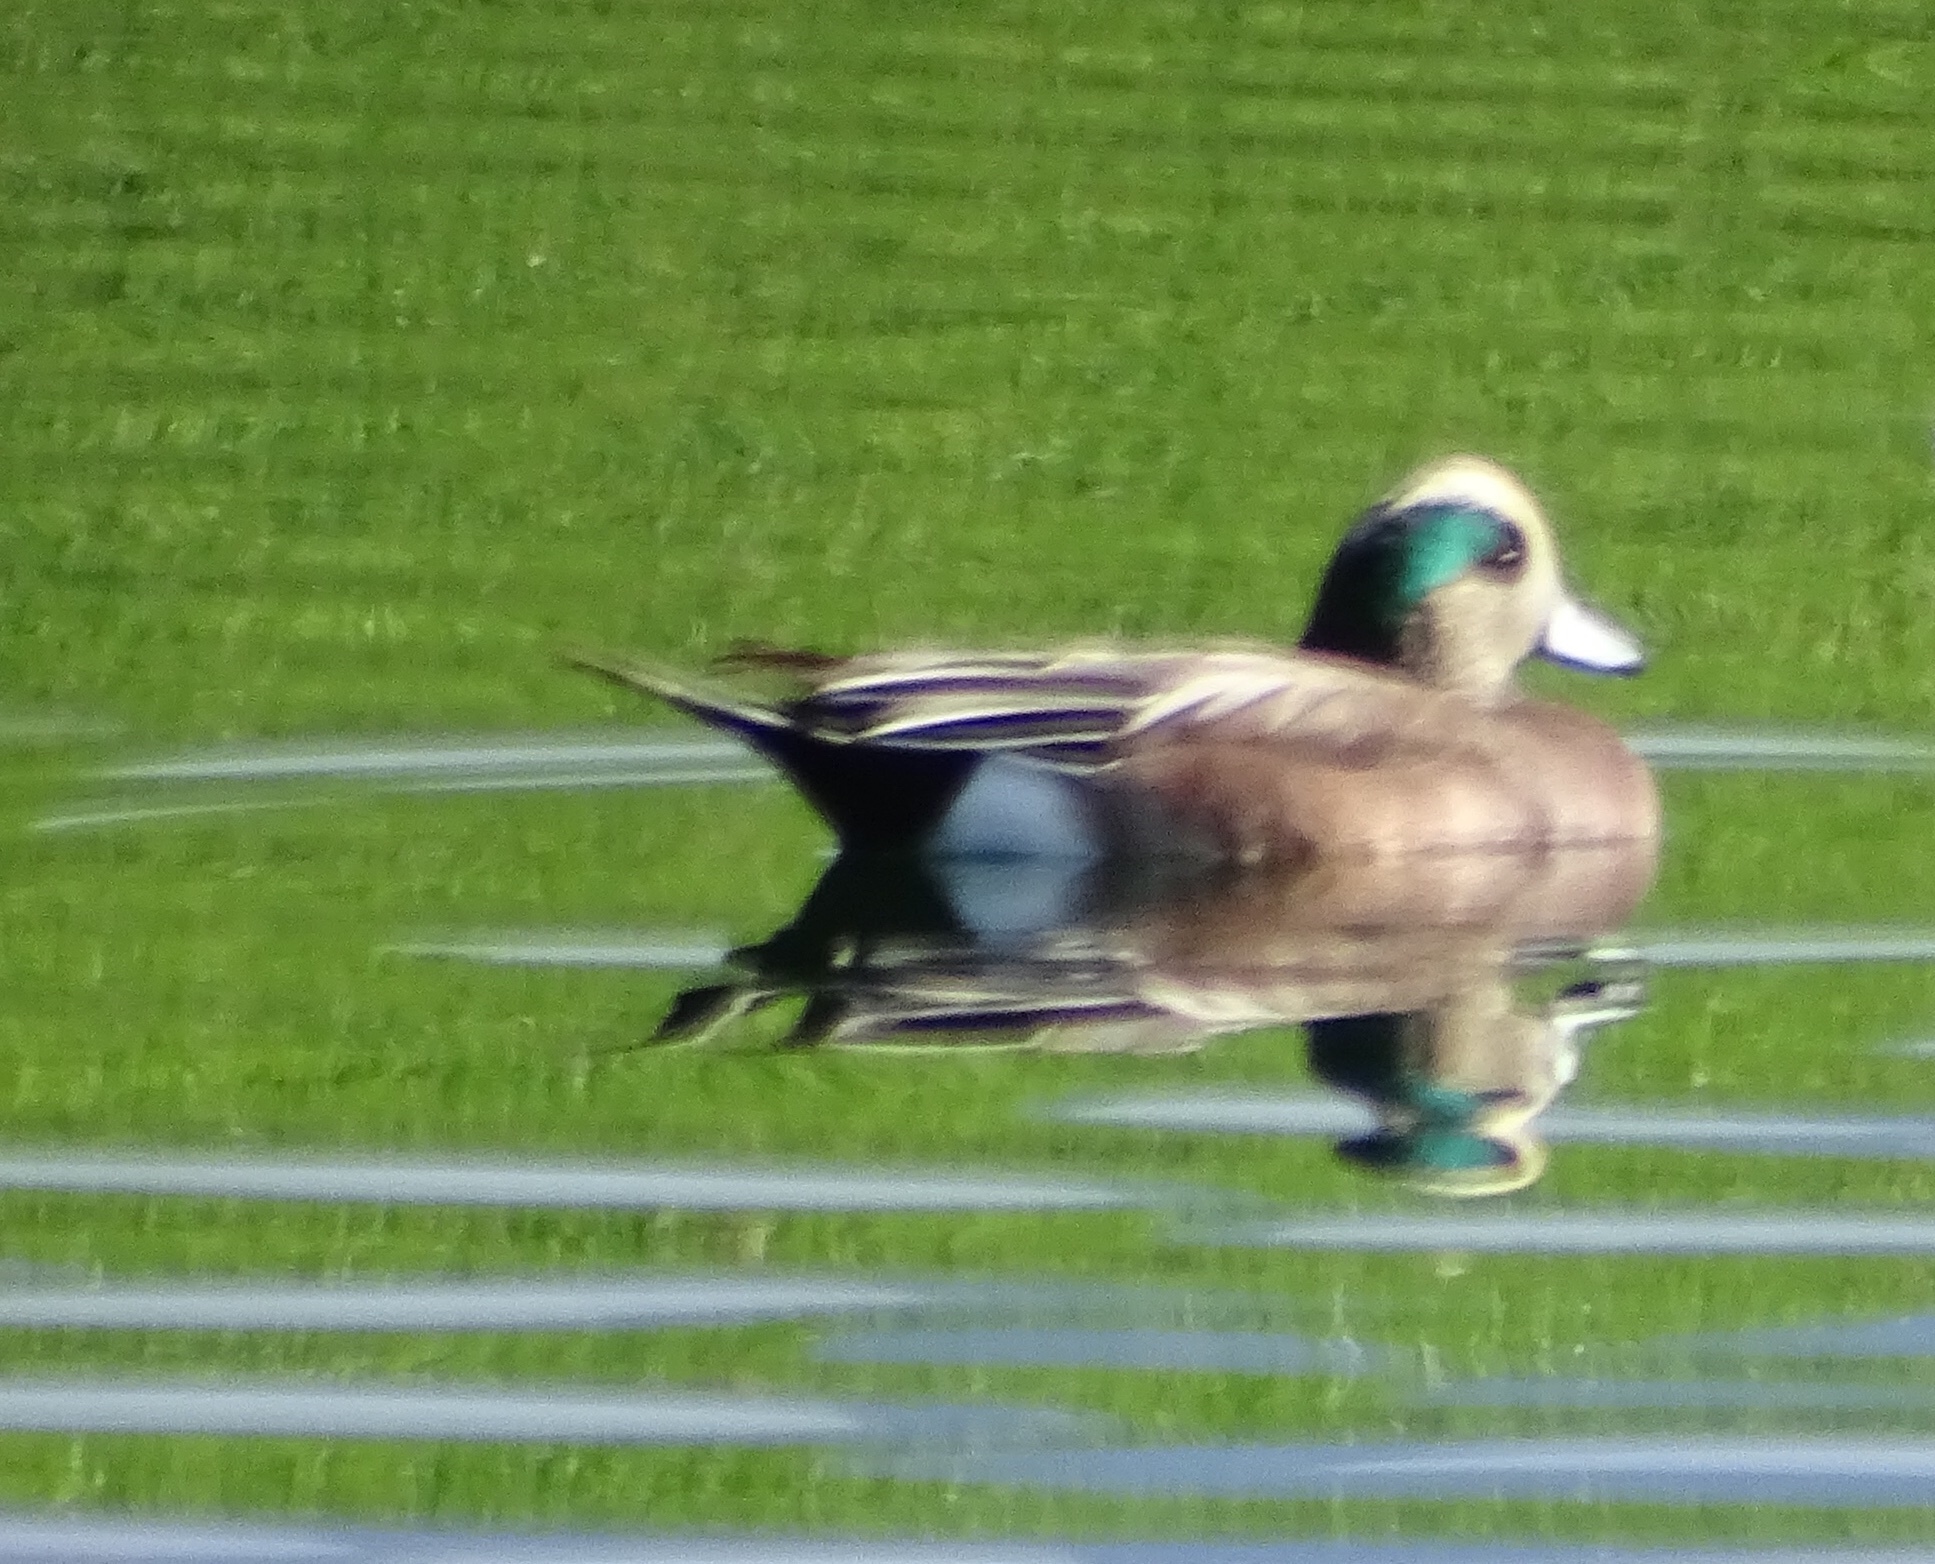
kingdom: Animalia
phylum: Chordata
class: Aves
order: Anseriformes
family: Anatidae
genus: Mareca
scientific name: Mareca americana
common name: American wigeon
